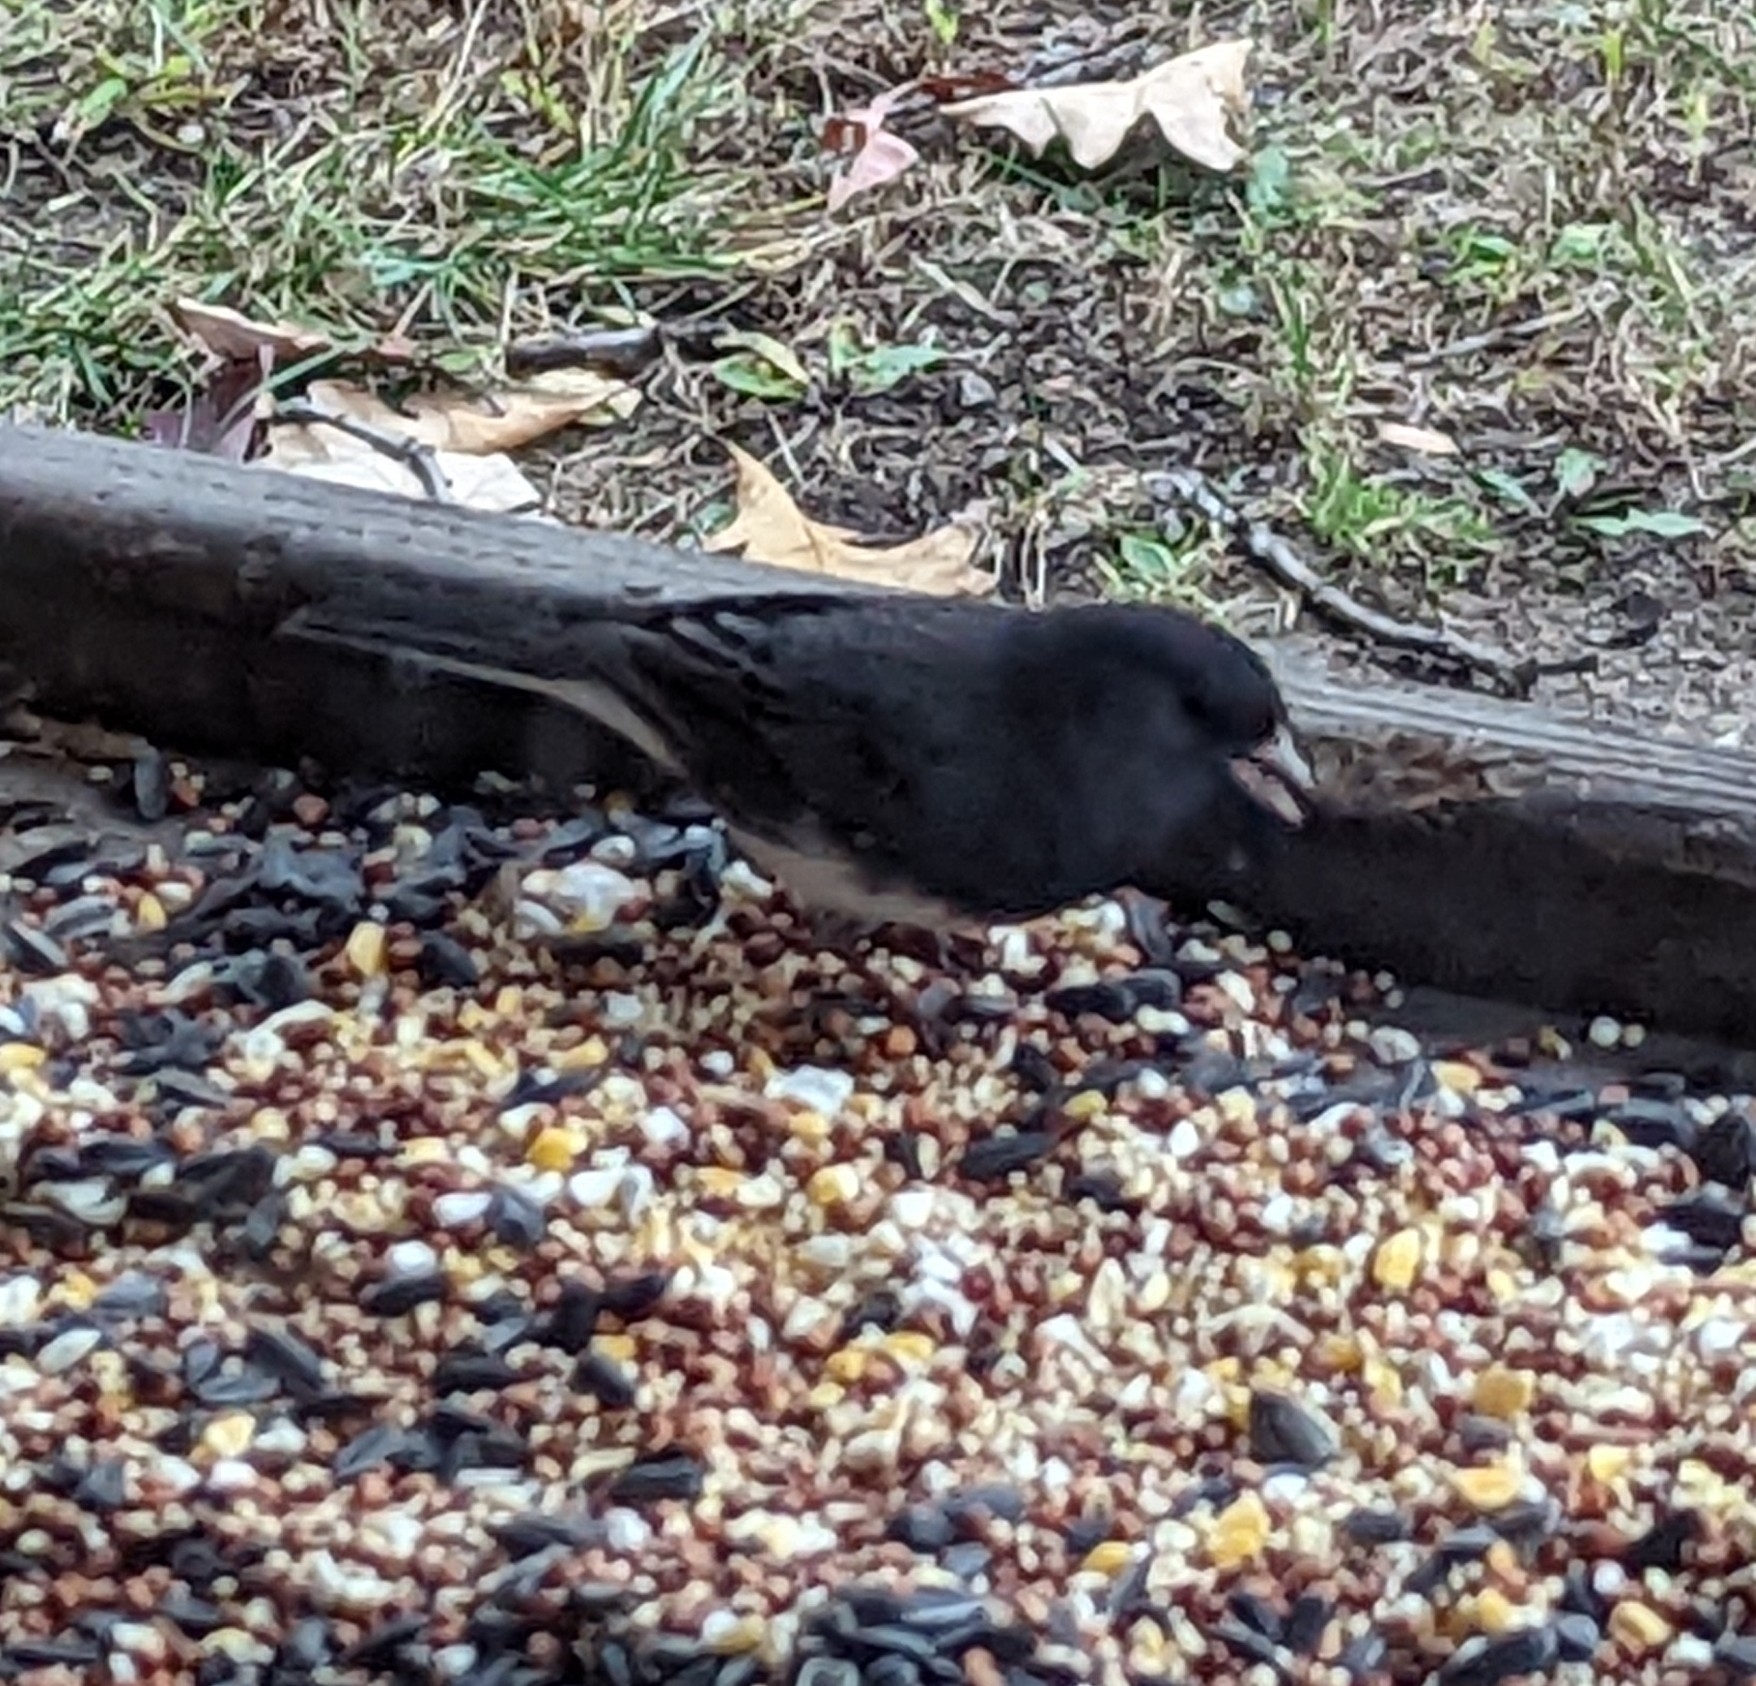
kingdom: Animalia
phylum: Chordata
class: Aves
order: Passeriformes
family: Passerellidae
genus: Junco
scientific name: Junco hyemalis
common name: Dark-eyed junco
